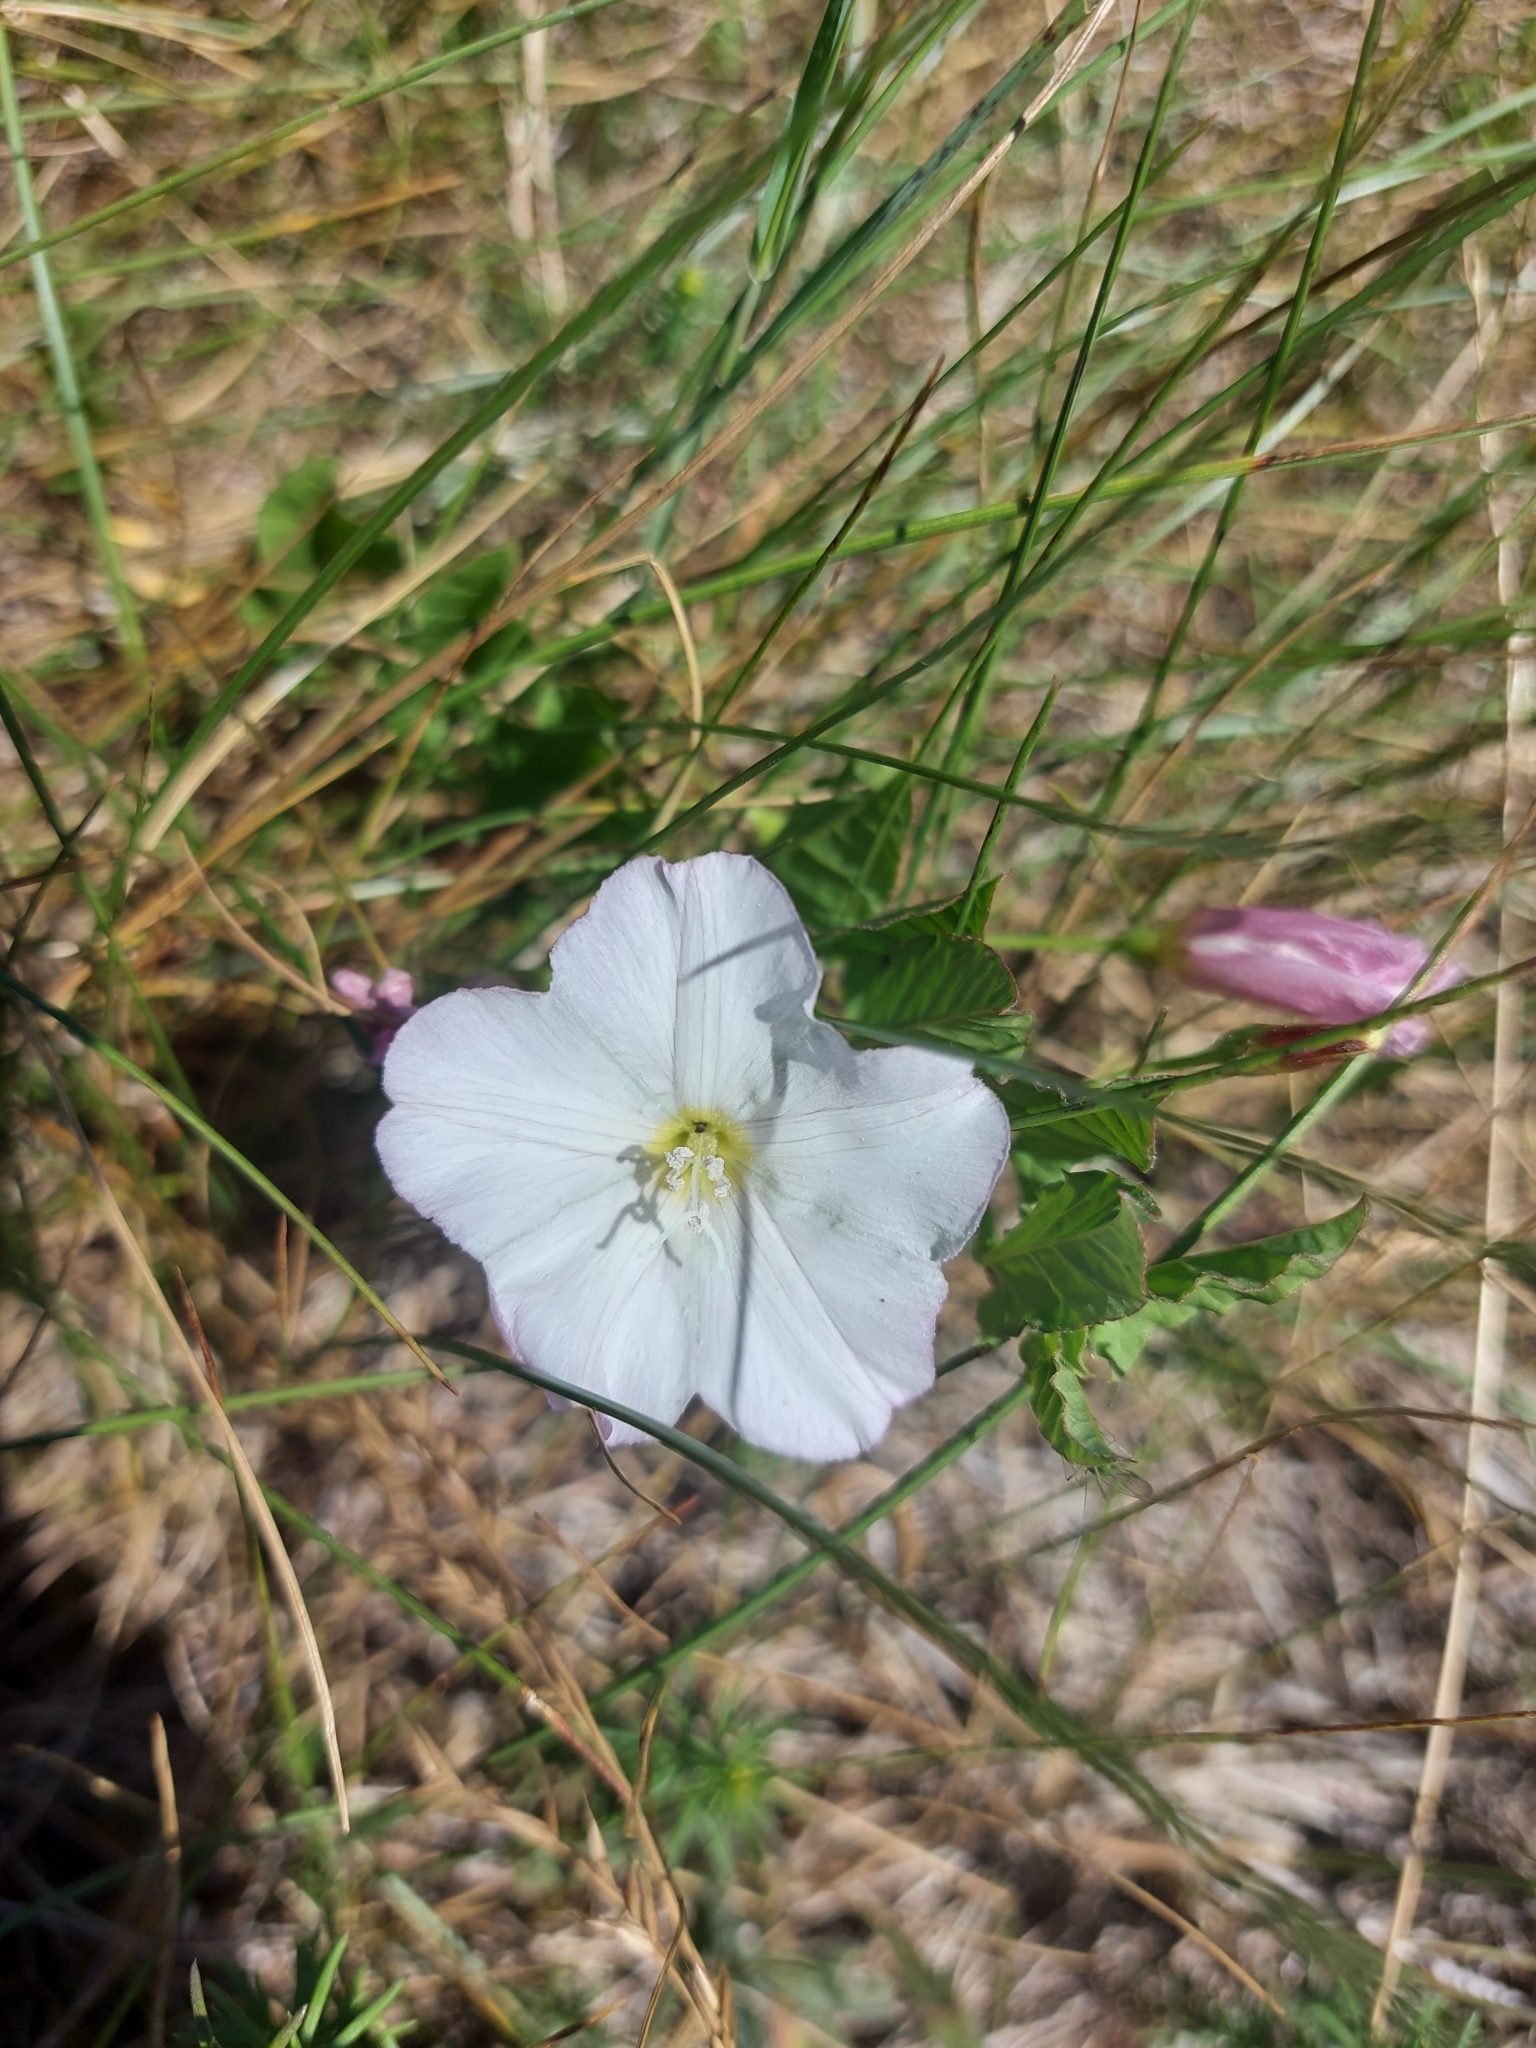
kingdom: Plantae
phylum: Tracheophyta
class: Magnoliopsida
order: Solanales
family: Convolvulaceae
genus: Convolvulus
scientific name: Convolvulus arvensis
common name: Field bindweed
